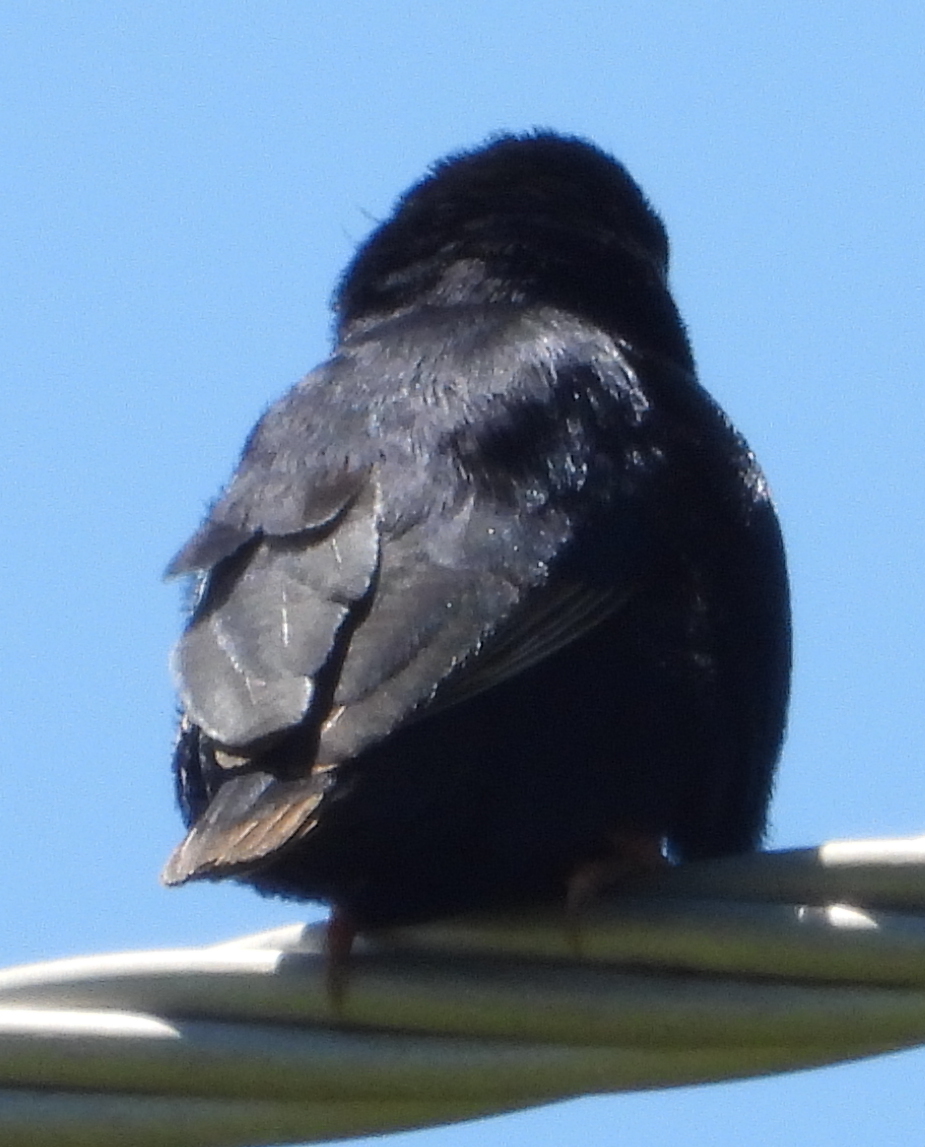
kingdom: Animalia
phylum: Chordata
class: Aves
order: Passeriformes
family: Viduidae
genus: Vidua
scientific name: Vidua chalybeata
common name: Village indigobird
